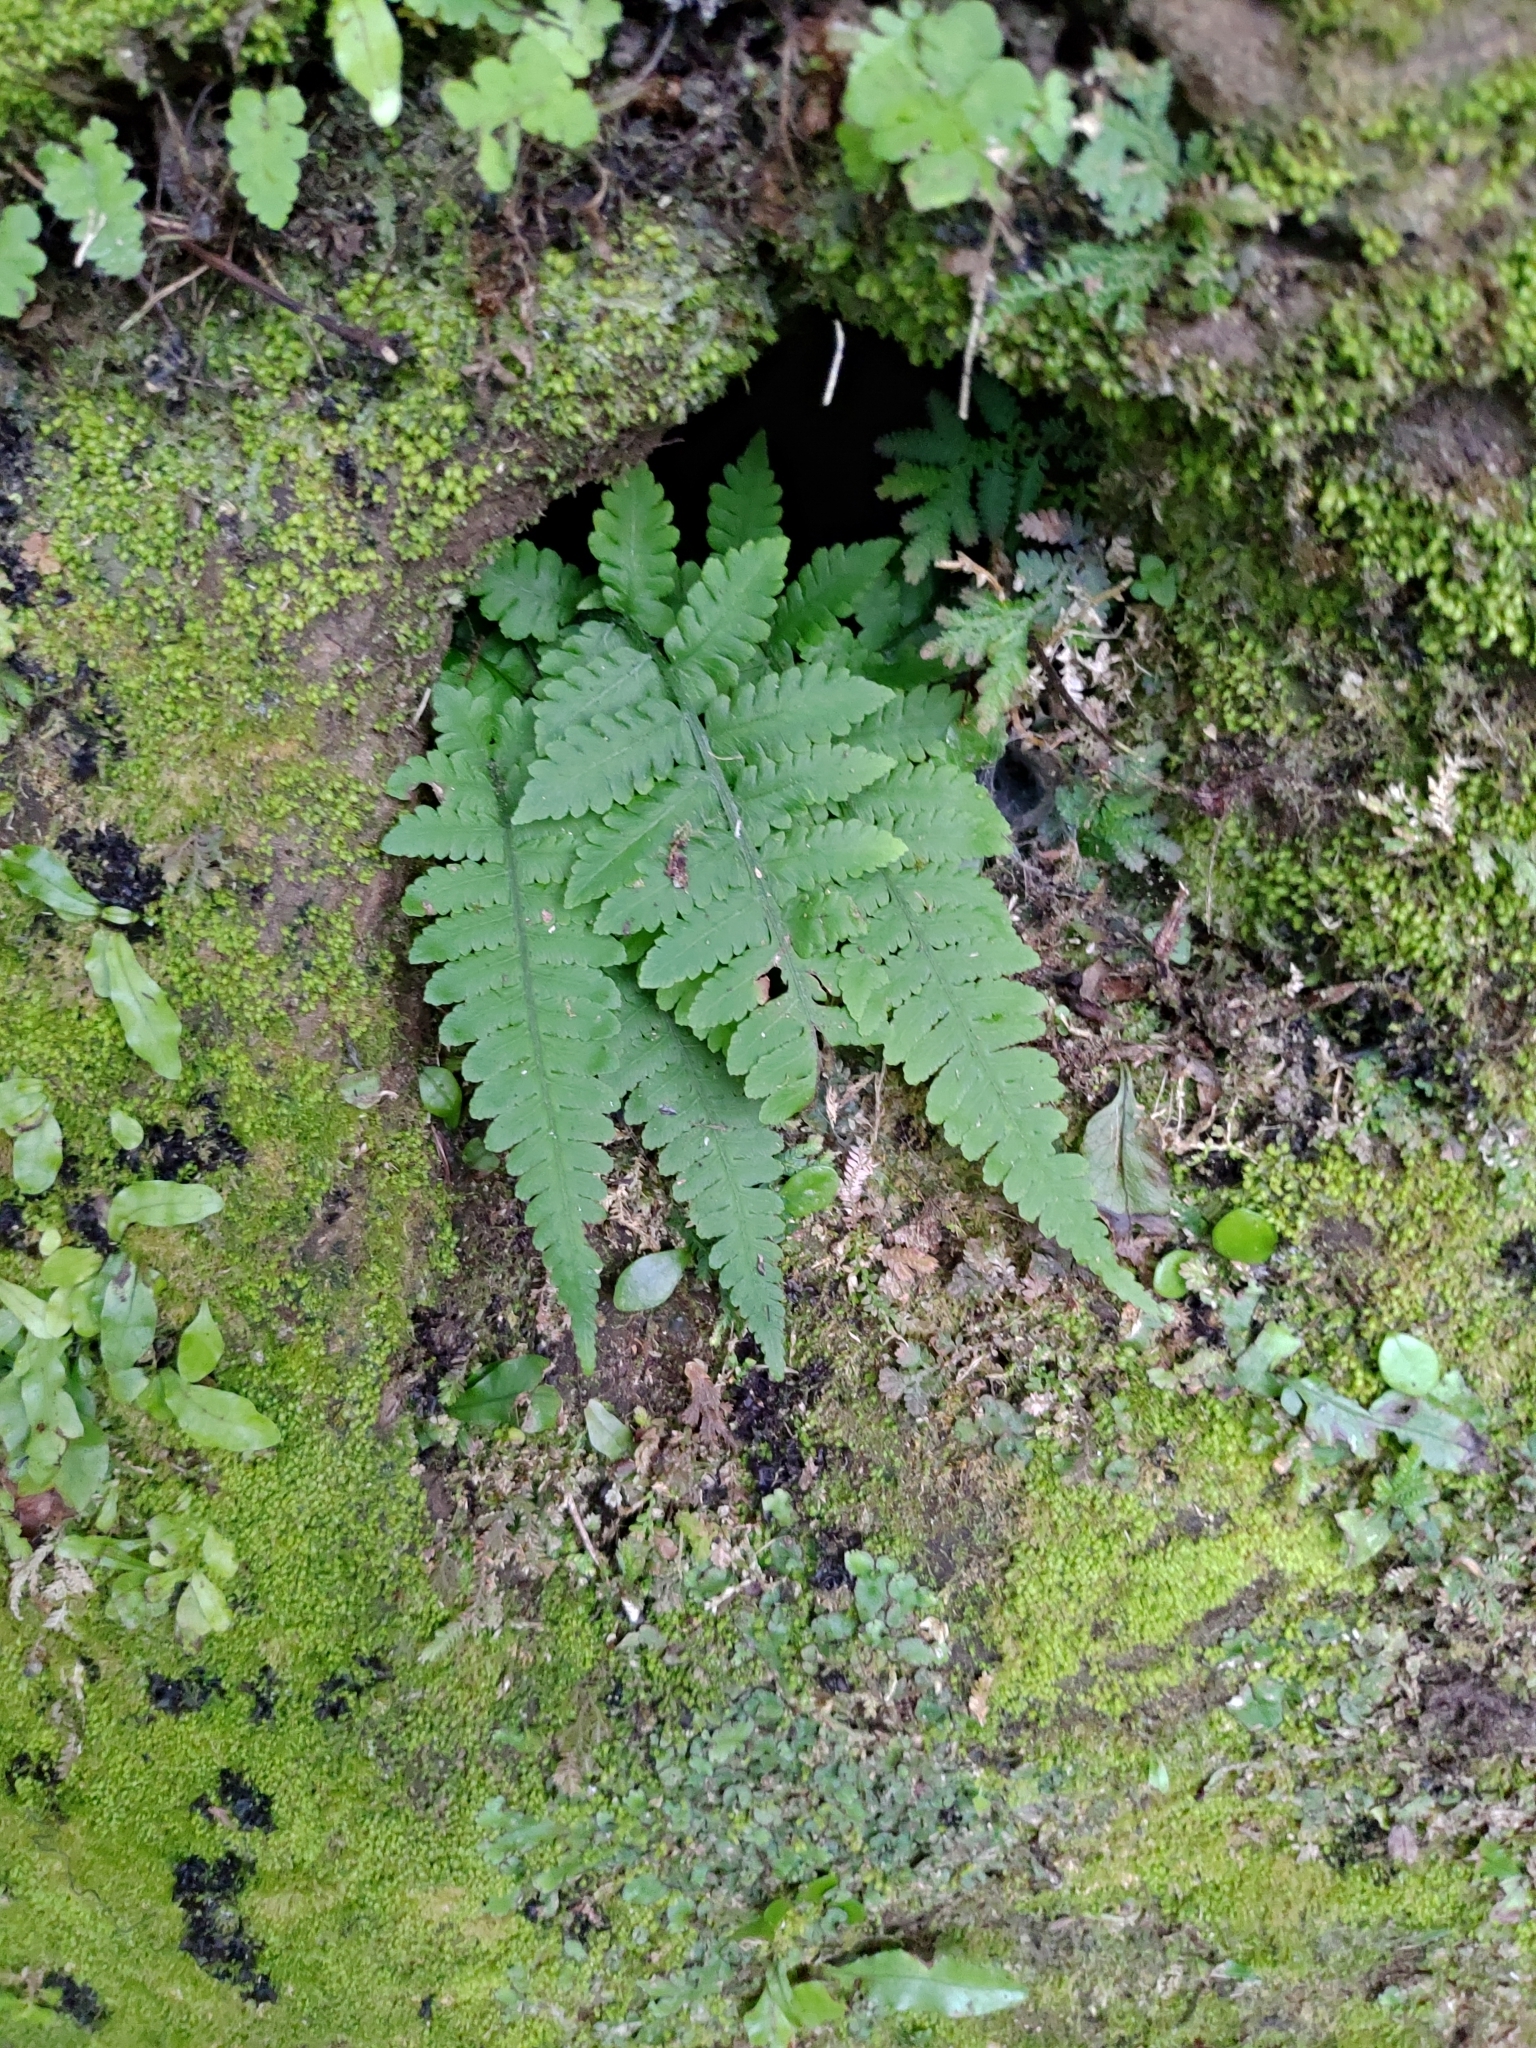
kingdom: Plantae
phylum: Tracheophyta
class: Polypodiopsida
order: Polypodiales
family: Athyriaceae
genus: Deparia
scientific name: Deparia petersenii
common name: Japanese false spleenwort
